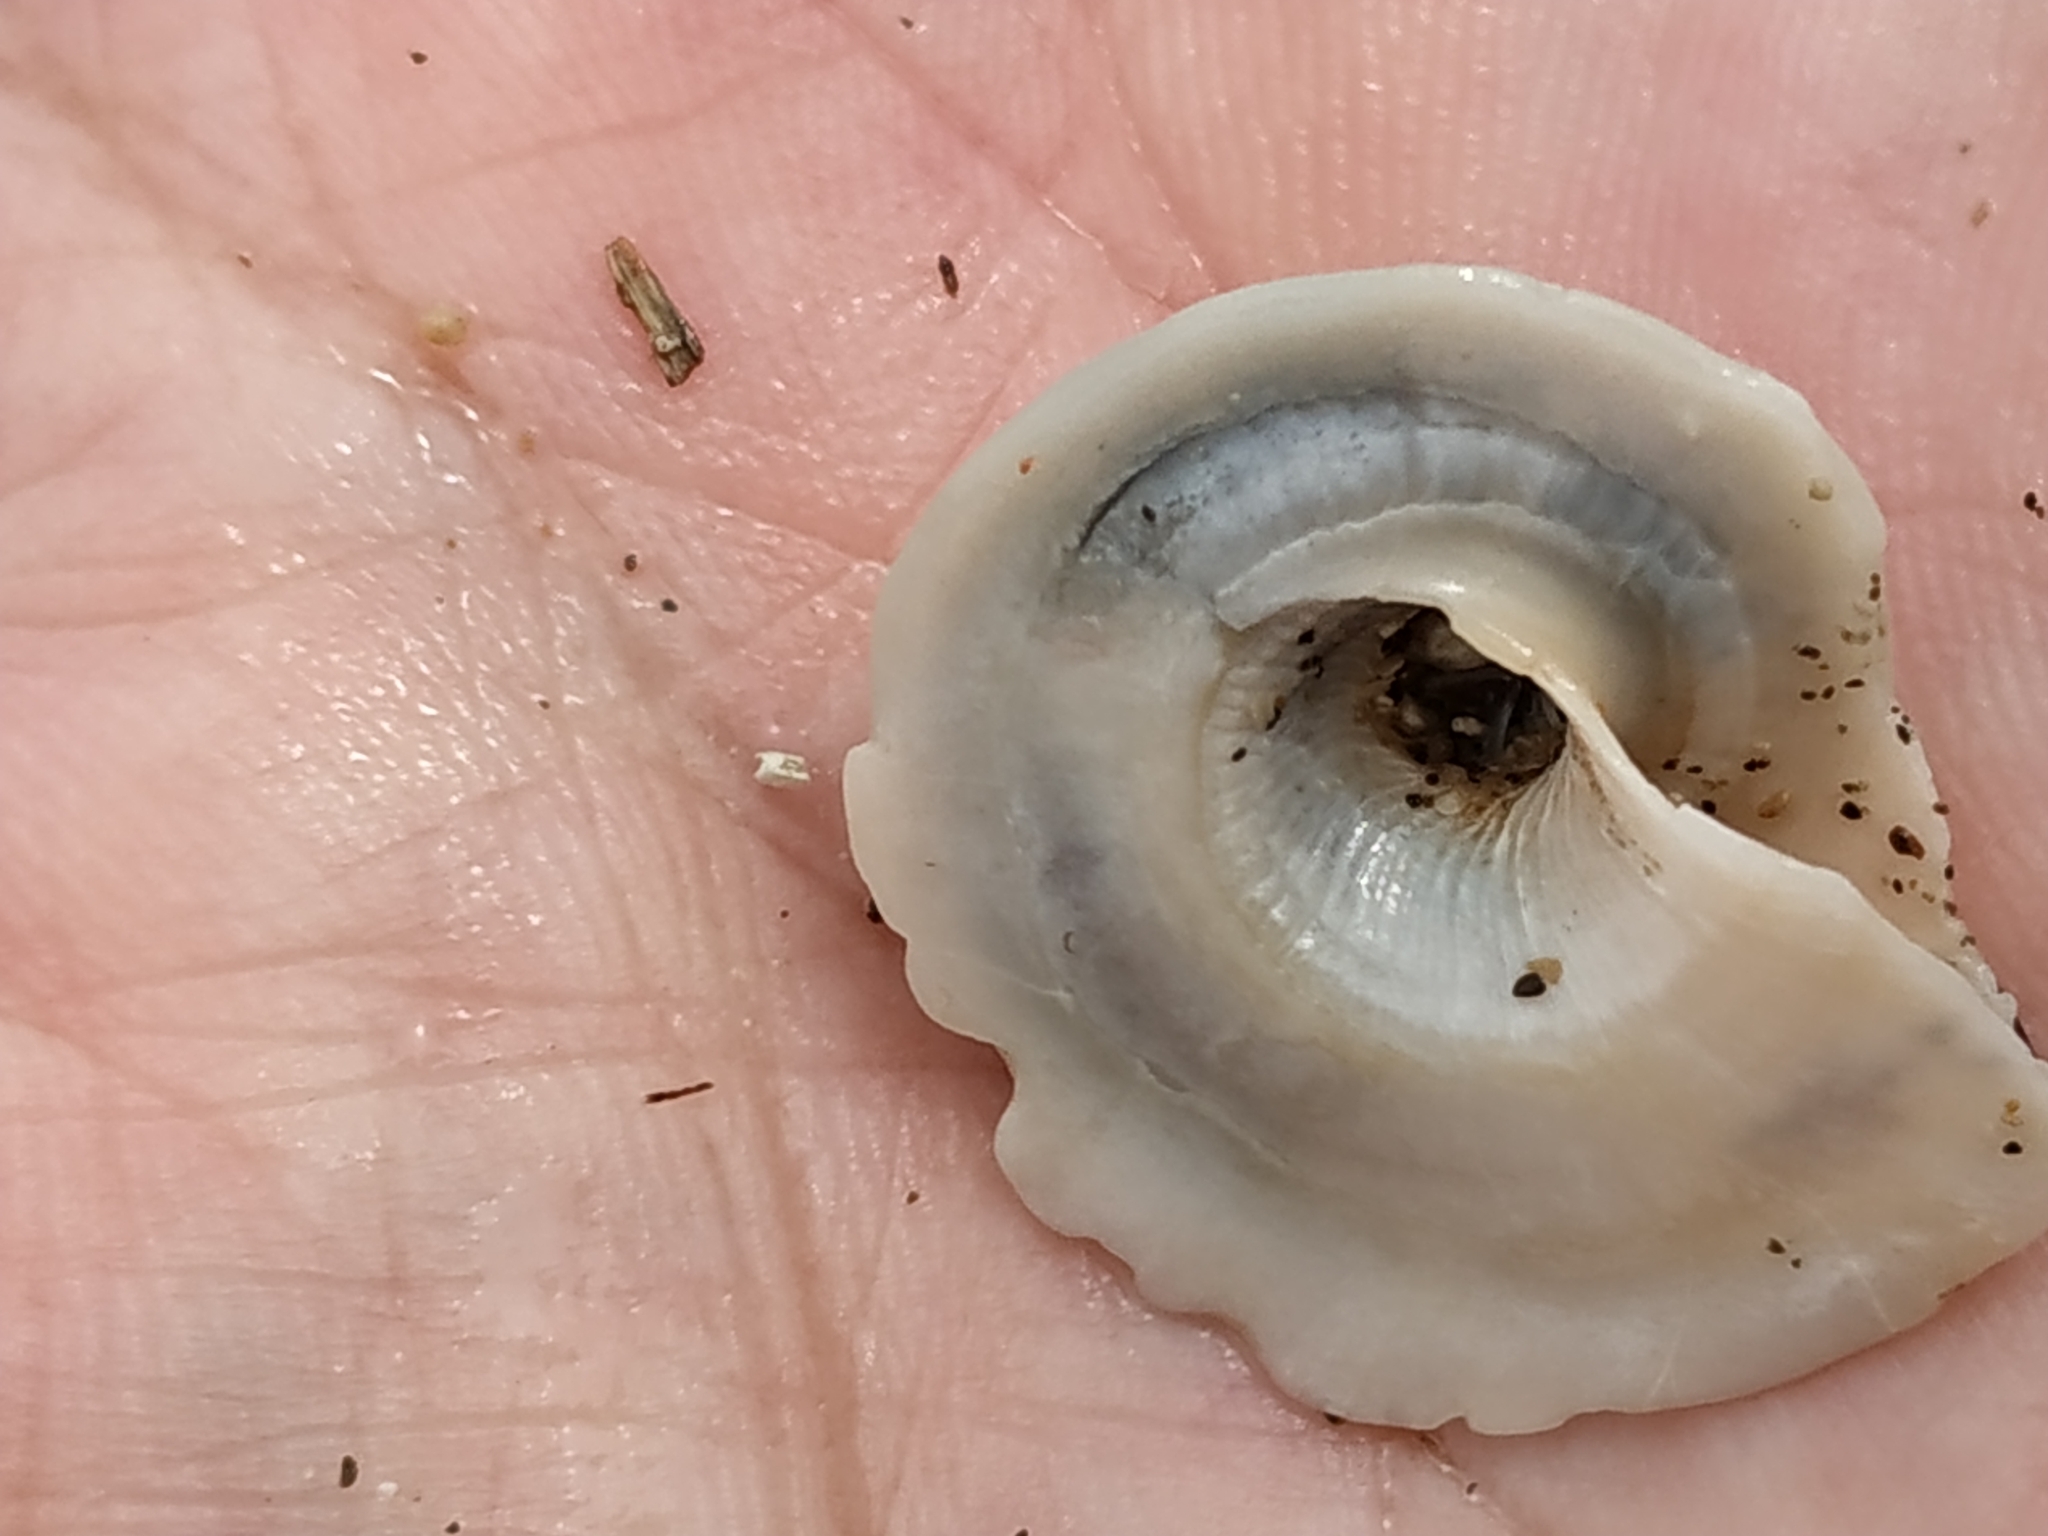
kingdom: Animalia
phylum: Mollusca
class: Gastropoda
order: Littorinimorpha
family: Xenophoridae
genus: Onustus
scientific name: Onustus exutus
